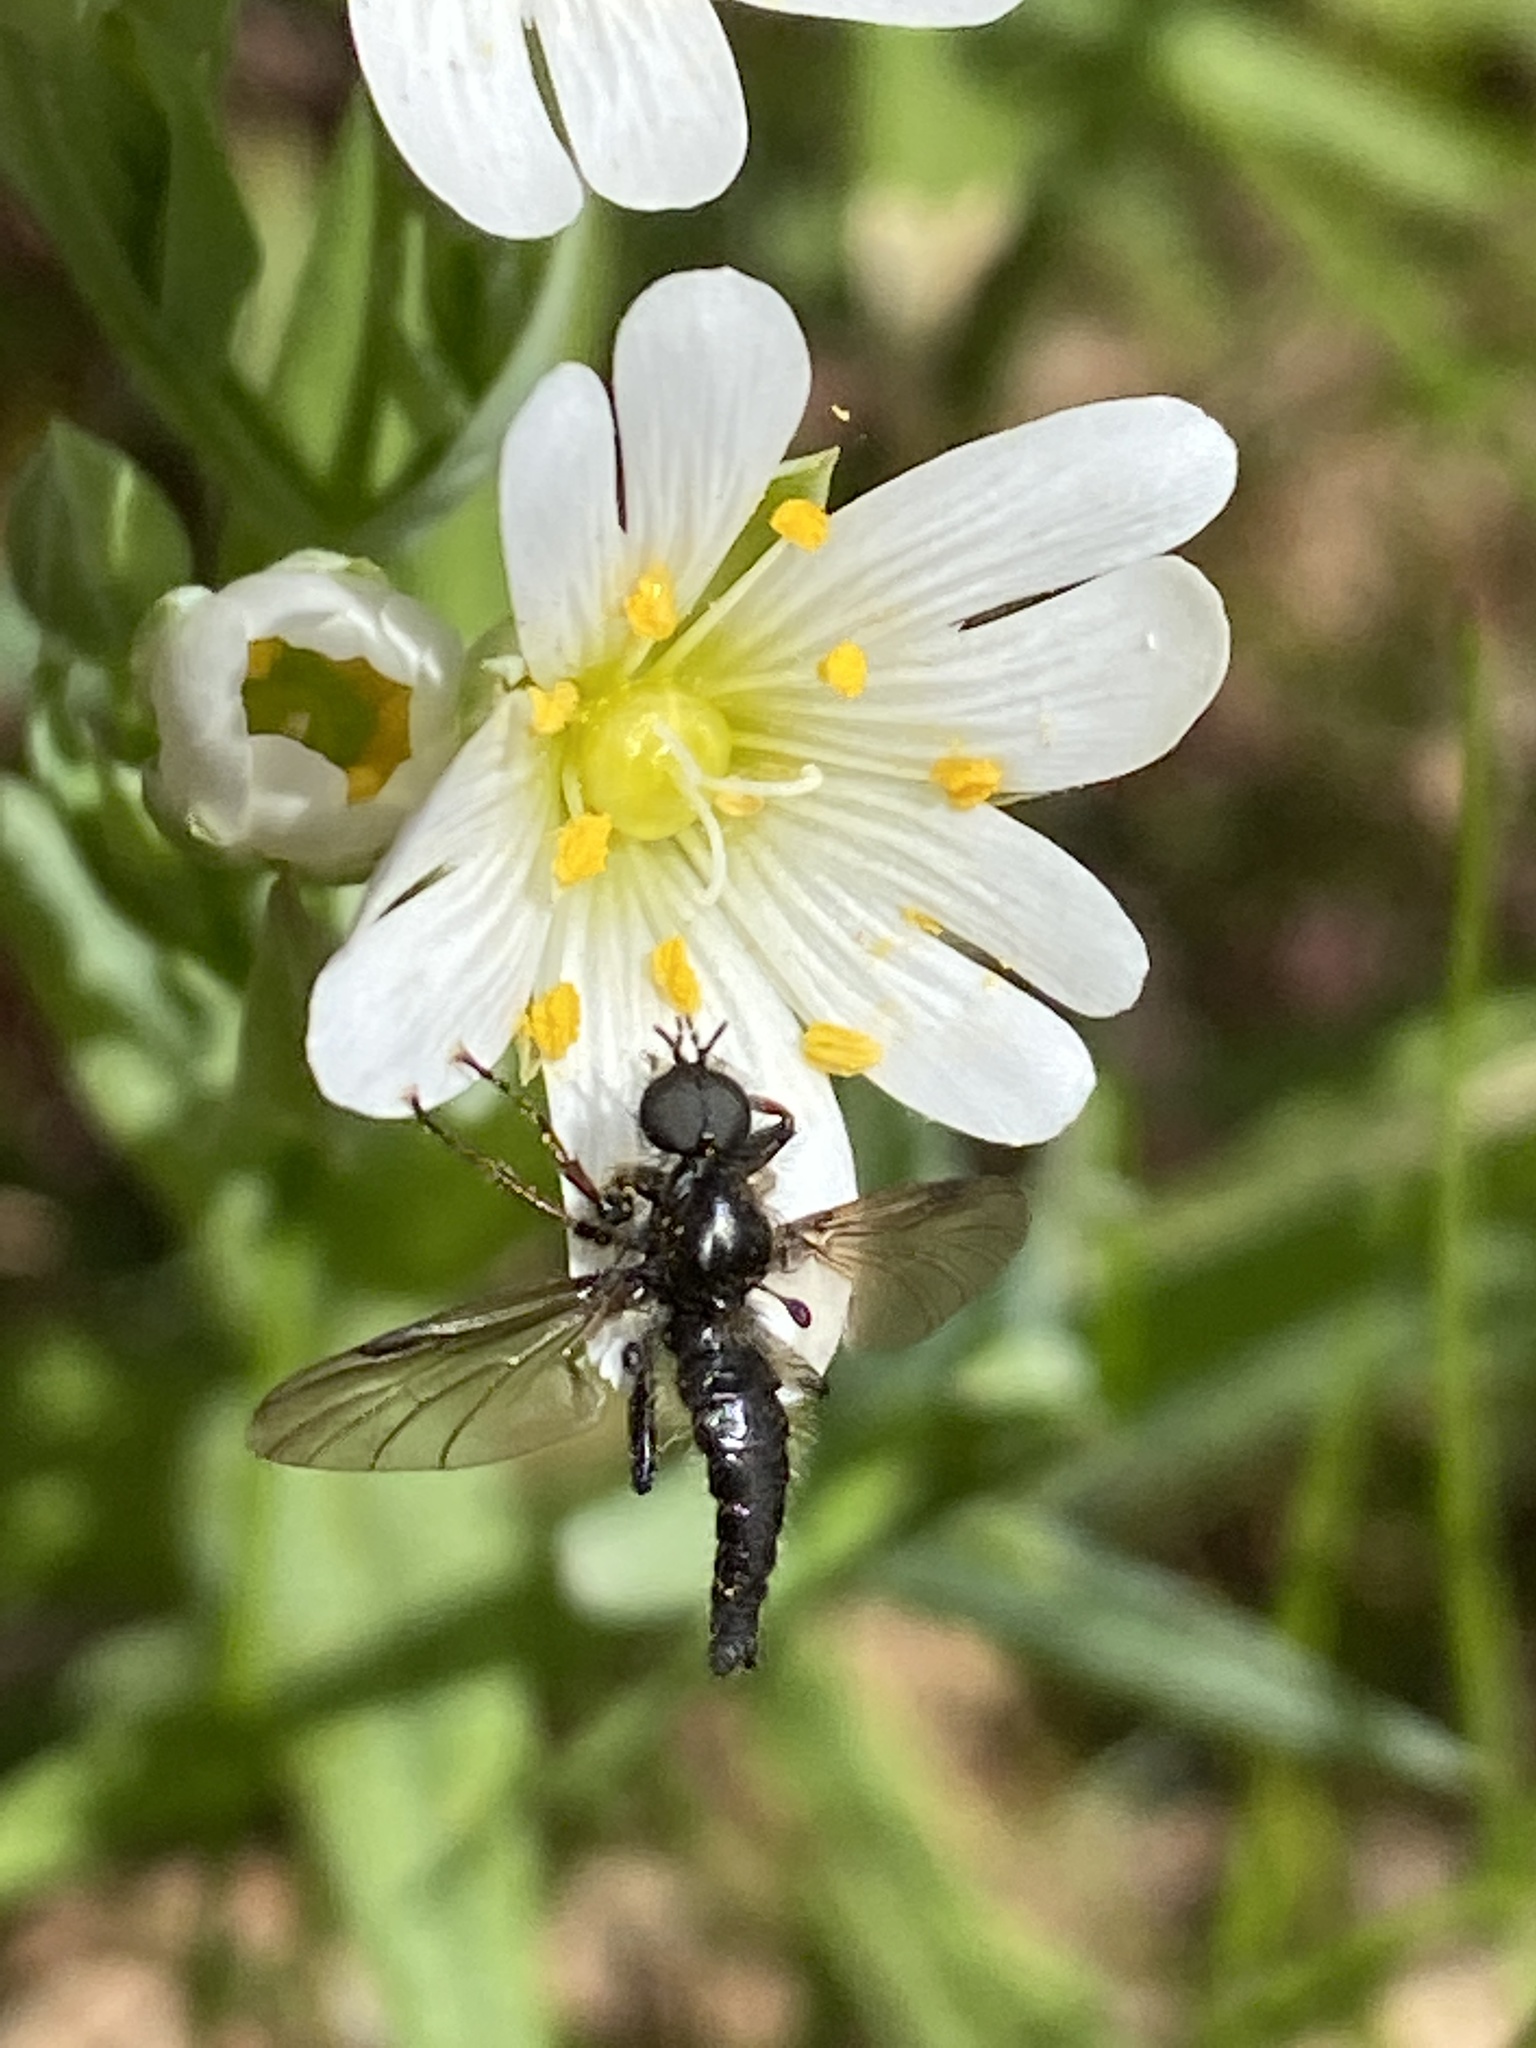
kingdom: Animalia
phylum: Arthropoda
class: Insecta
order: Diptera
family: Bibionidae
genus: Bibio
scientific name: Bibio lanigerus
